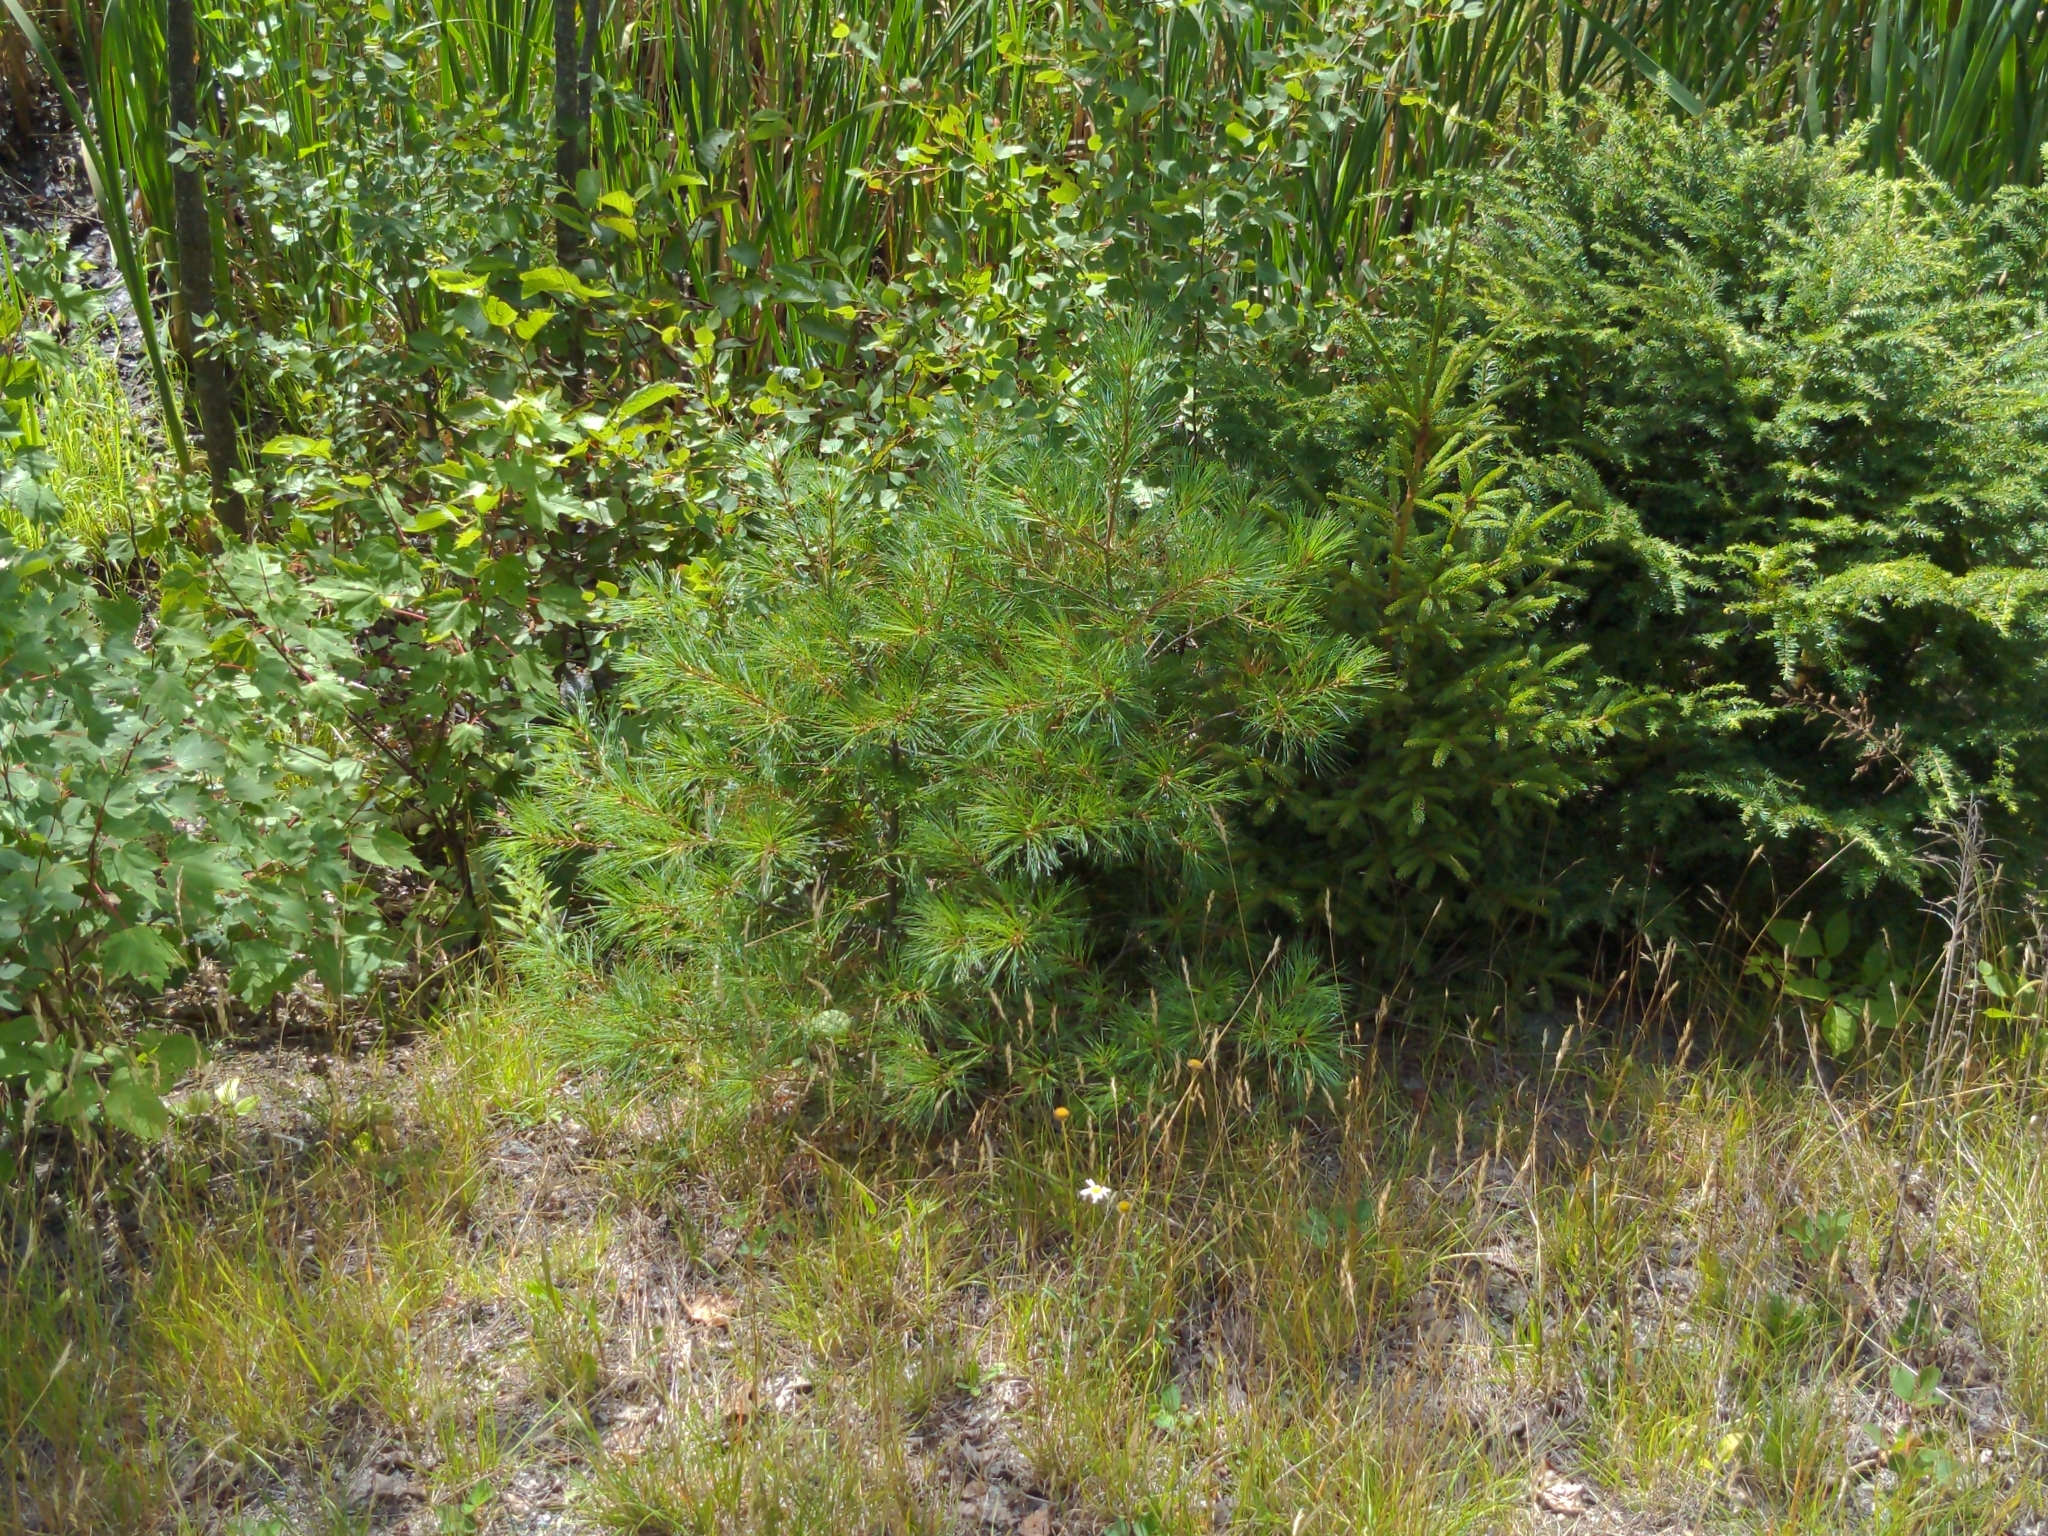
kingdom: Plantae
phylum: Tracheophyta
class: Pinopsida
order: Pinales
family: Pinaceae
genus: Pinus
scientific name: Pinus strobus
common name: Weymouth pine
